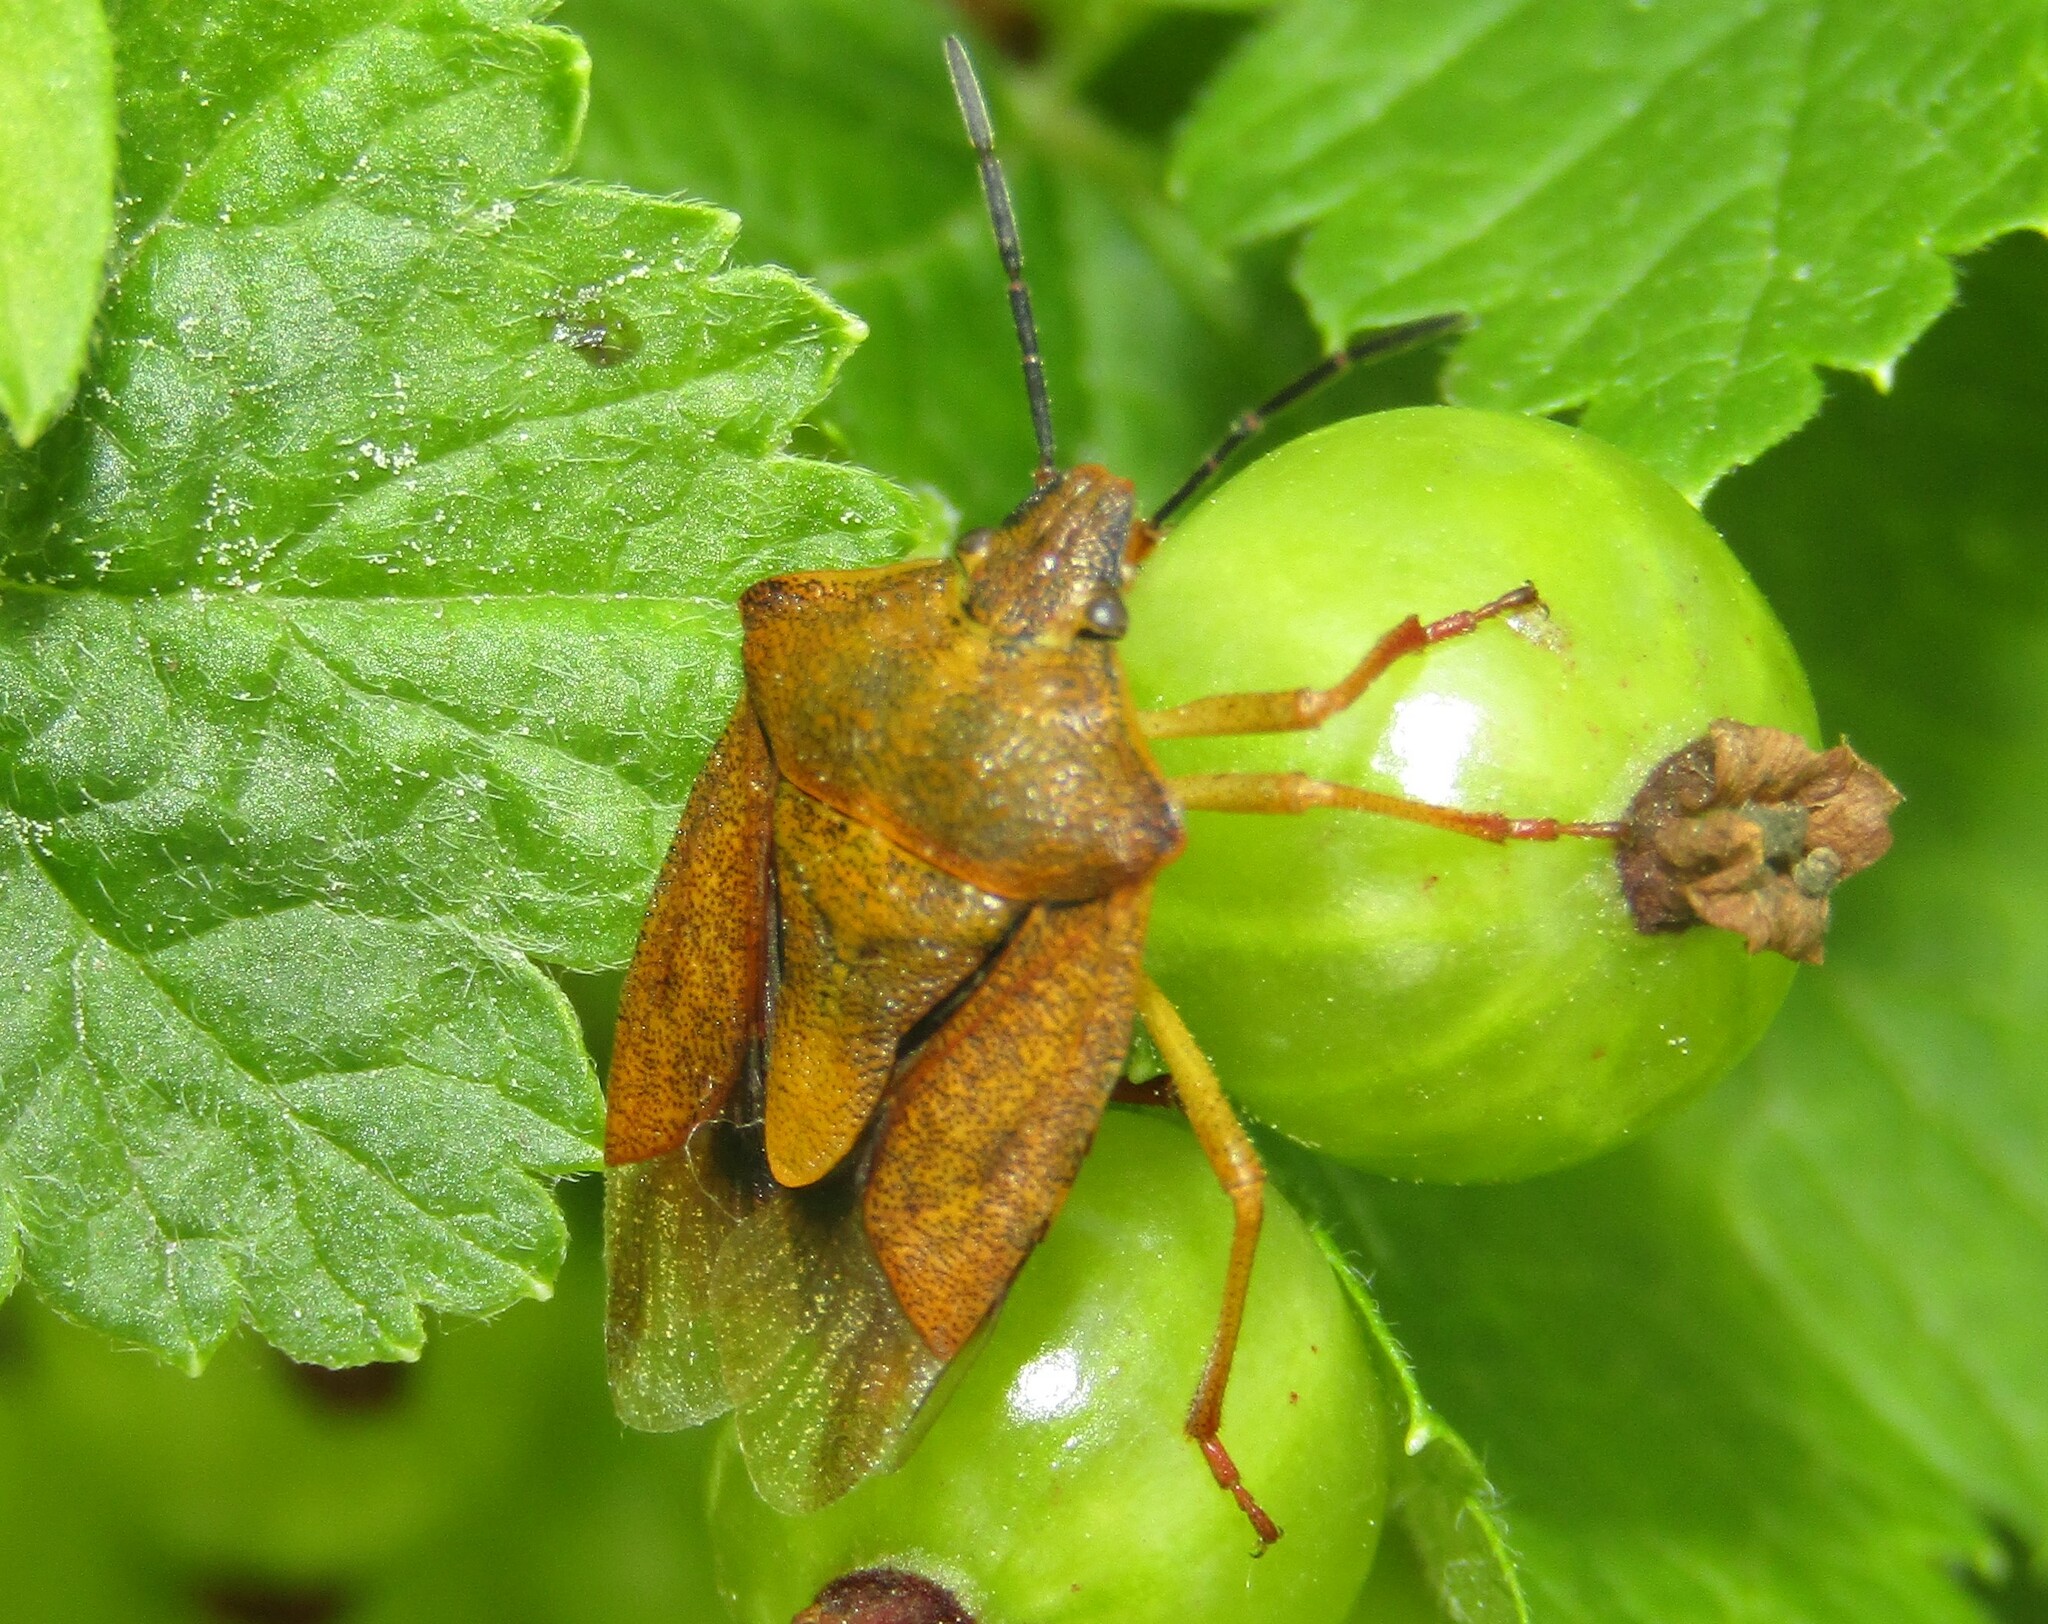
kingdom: Animalia
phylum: Arthropoda
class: Insecta
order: Hemiptera
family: Pentatomidae
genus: Carpocoris
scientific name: Carpocoris purpureipennis
